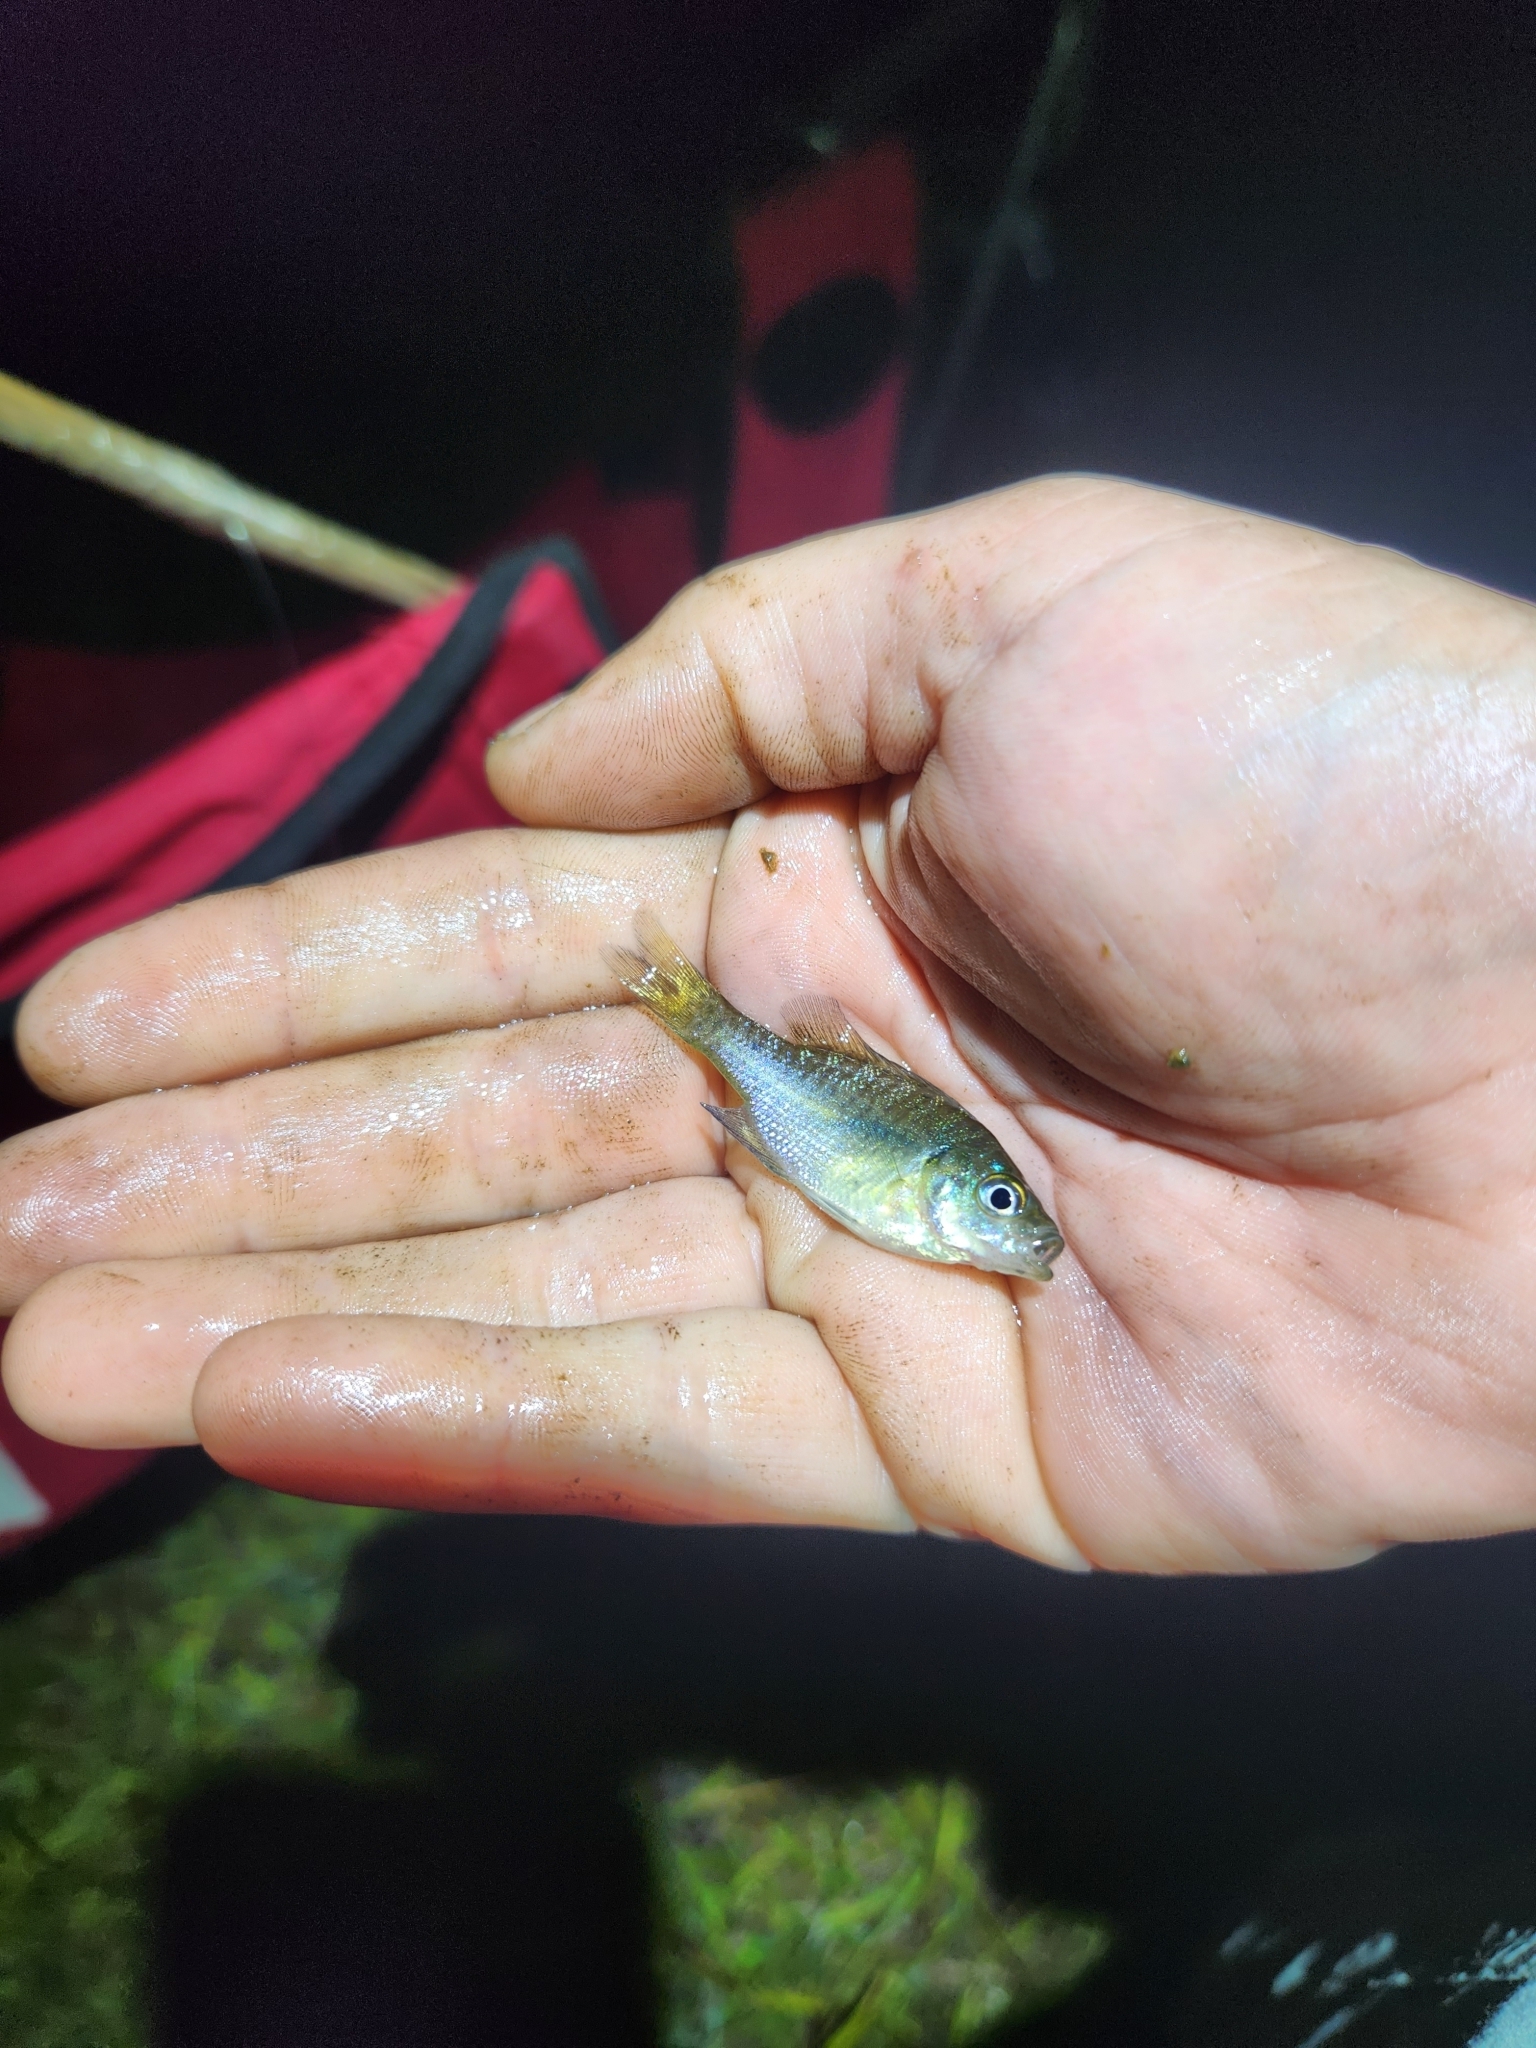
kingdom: Animalia
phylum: Chordata
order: Perciformes
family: Centrarchidae
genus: Lepomis
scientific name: Lepomis macrochirus
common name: Bluegill
